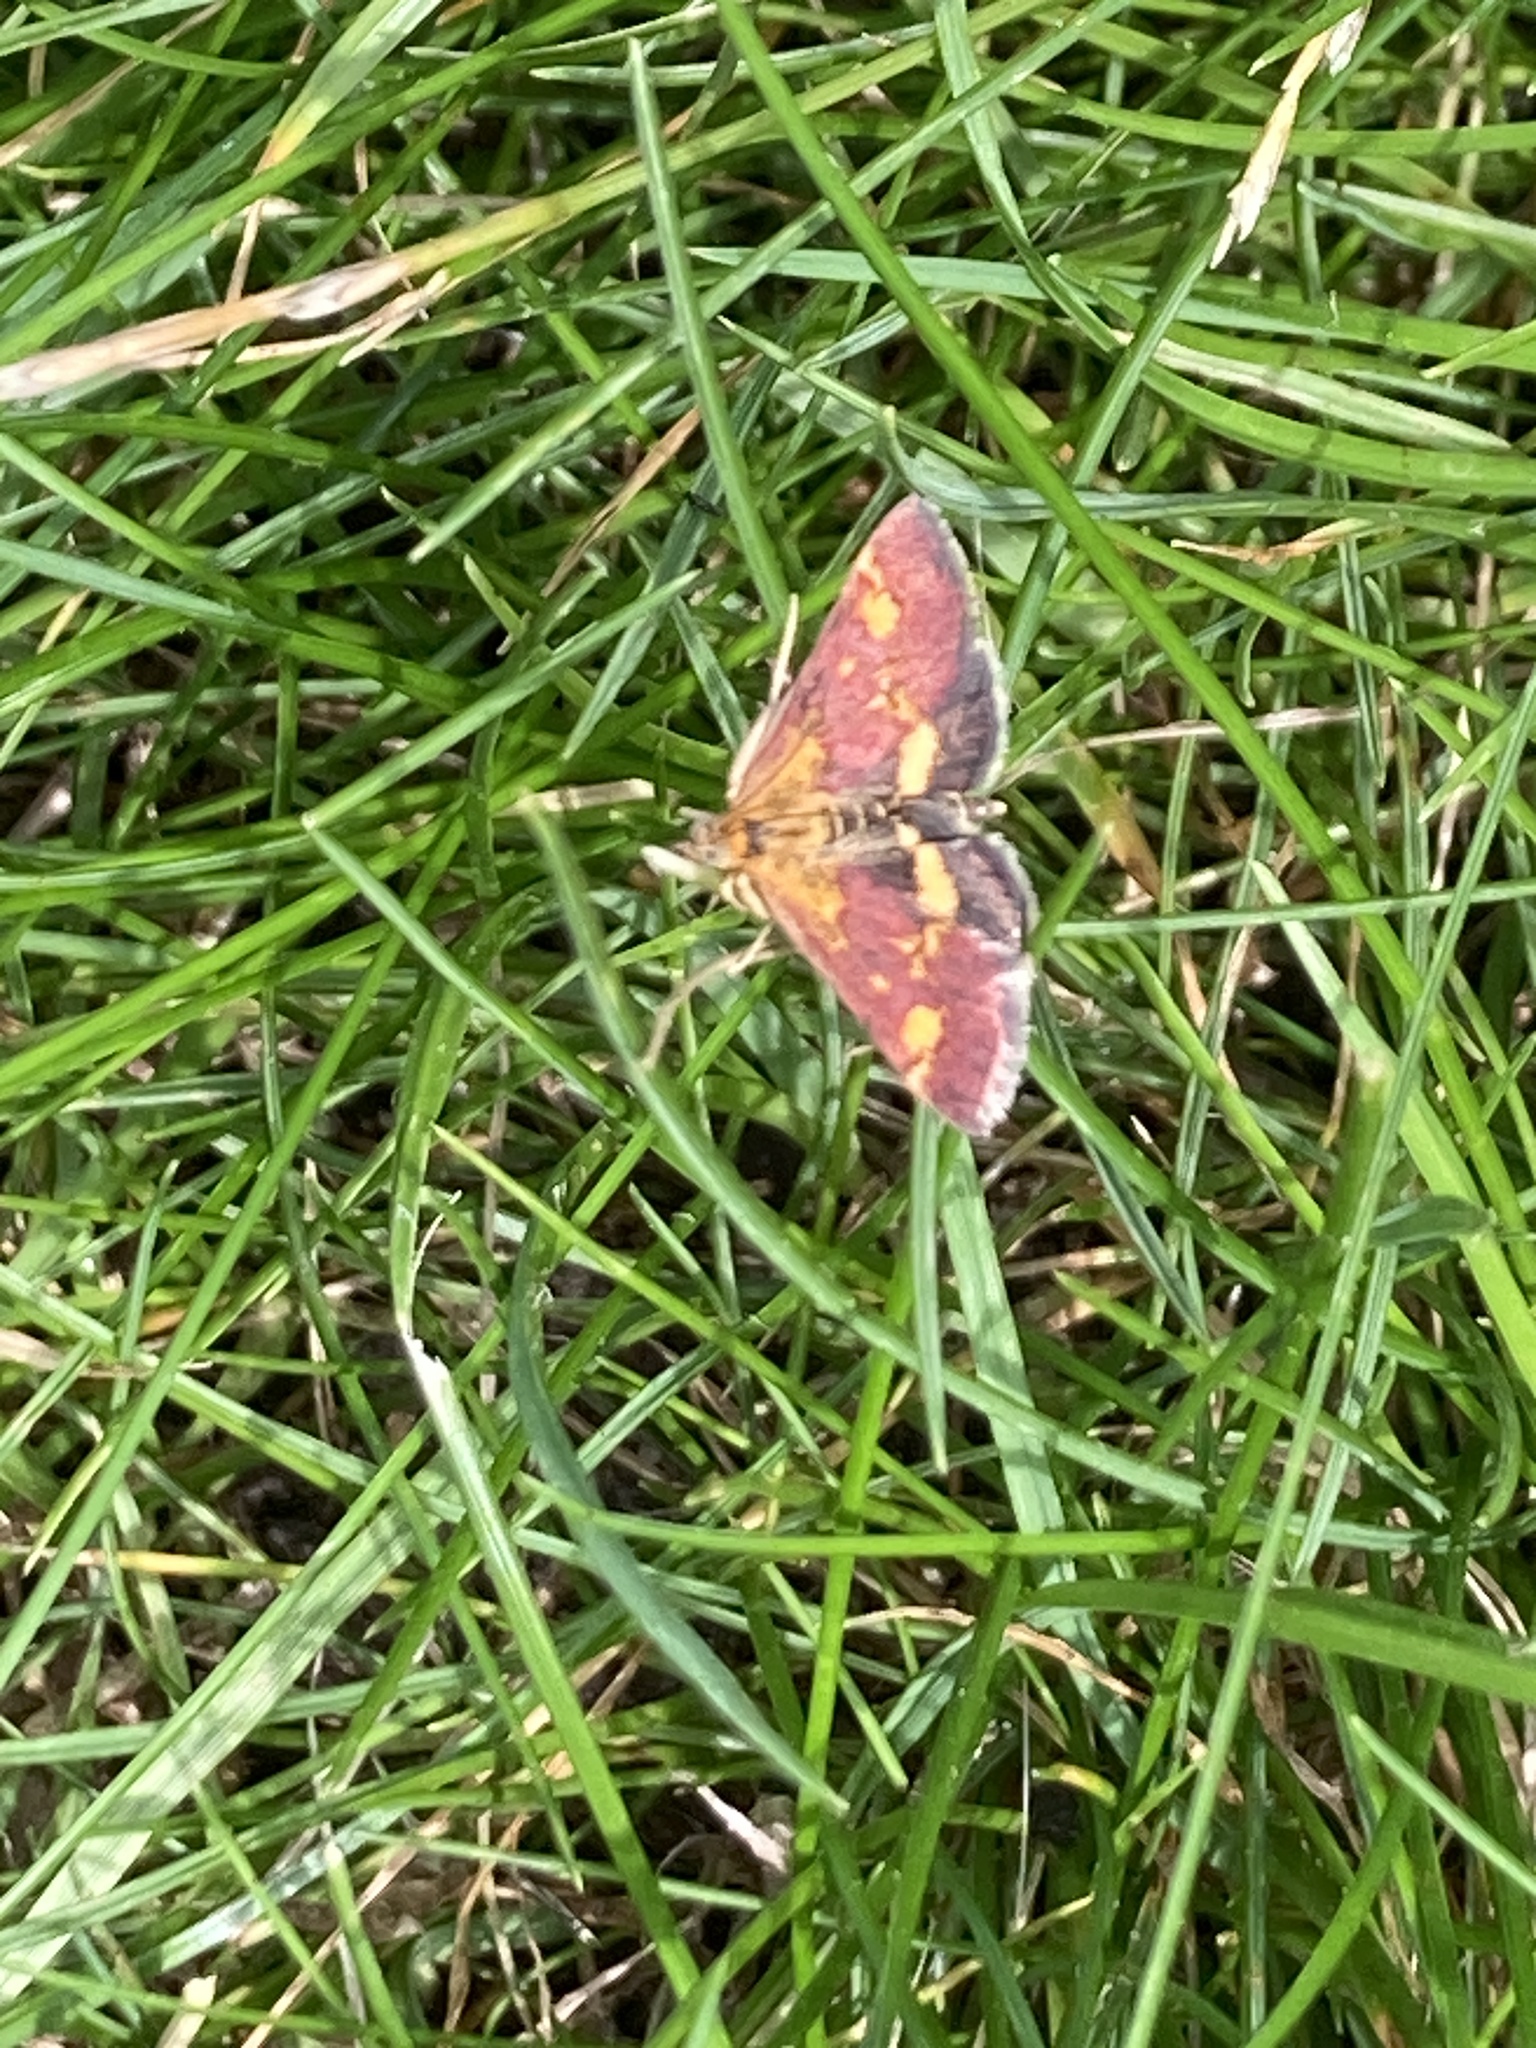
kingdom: Animalia
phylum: Arthropoda
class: Insecta
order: Lepidoptera
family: Crambidae
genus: Pyrausta
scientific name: Pyrausta aurata
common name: Small purple & gold
